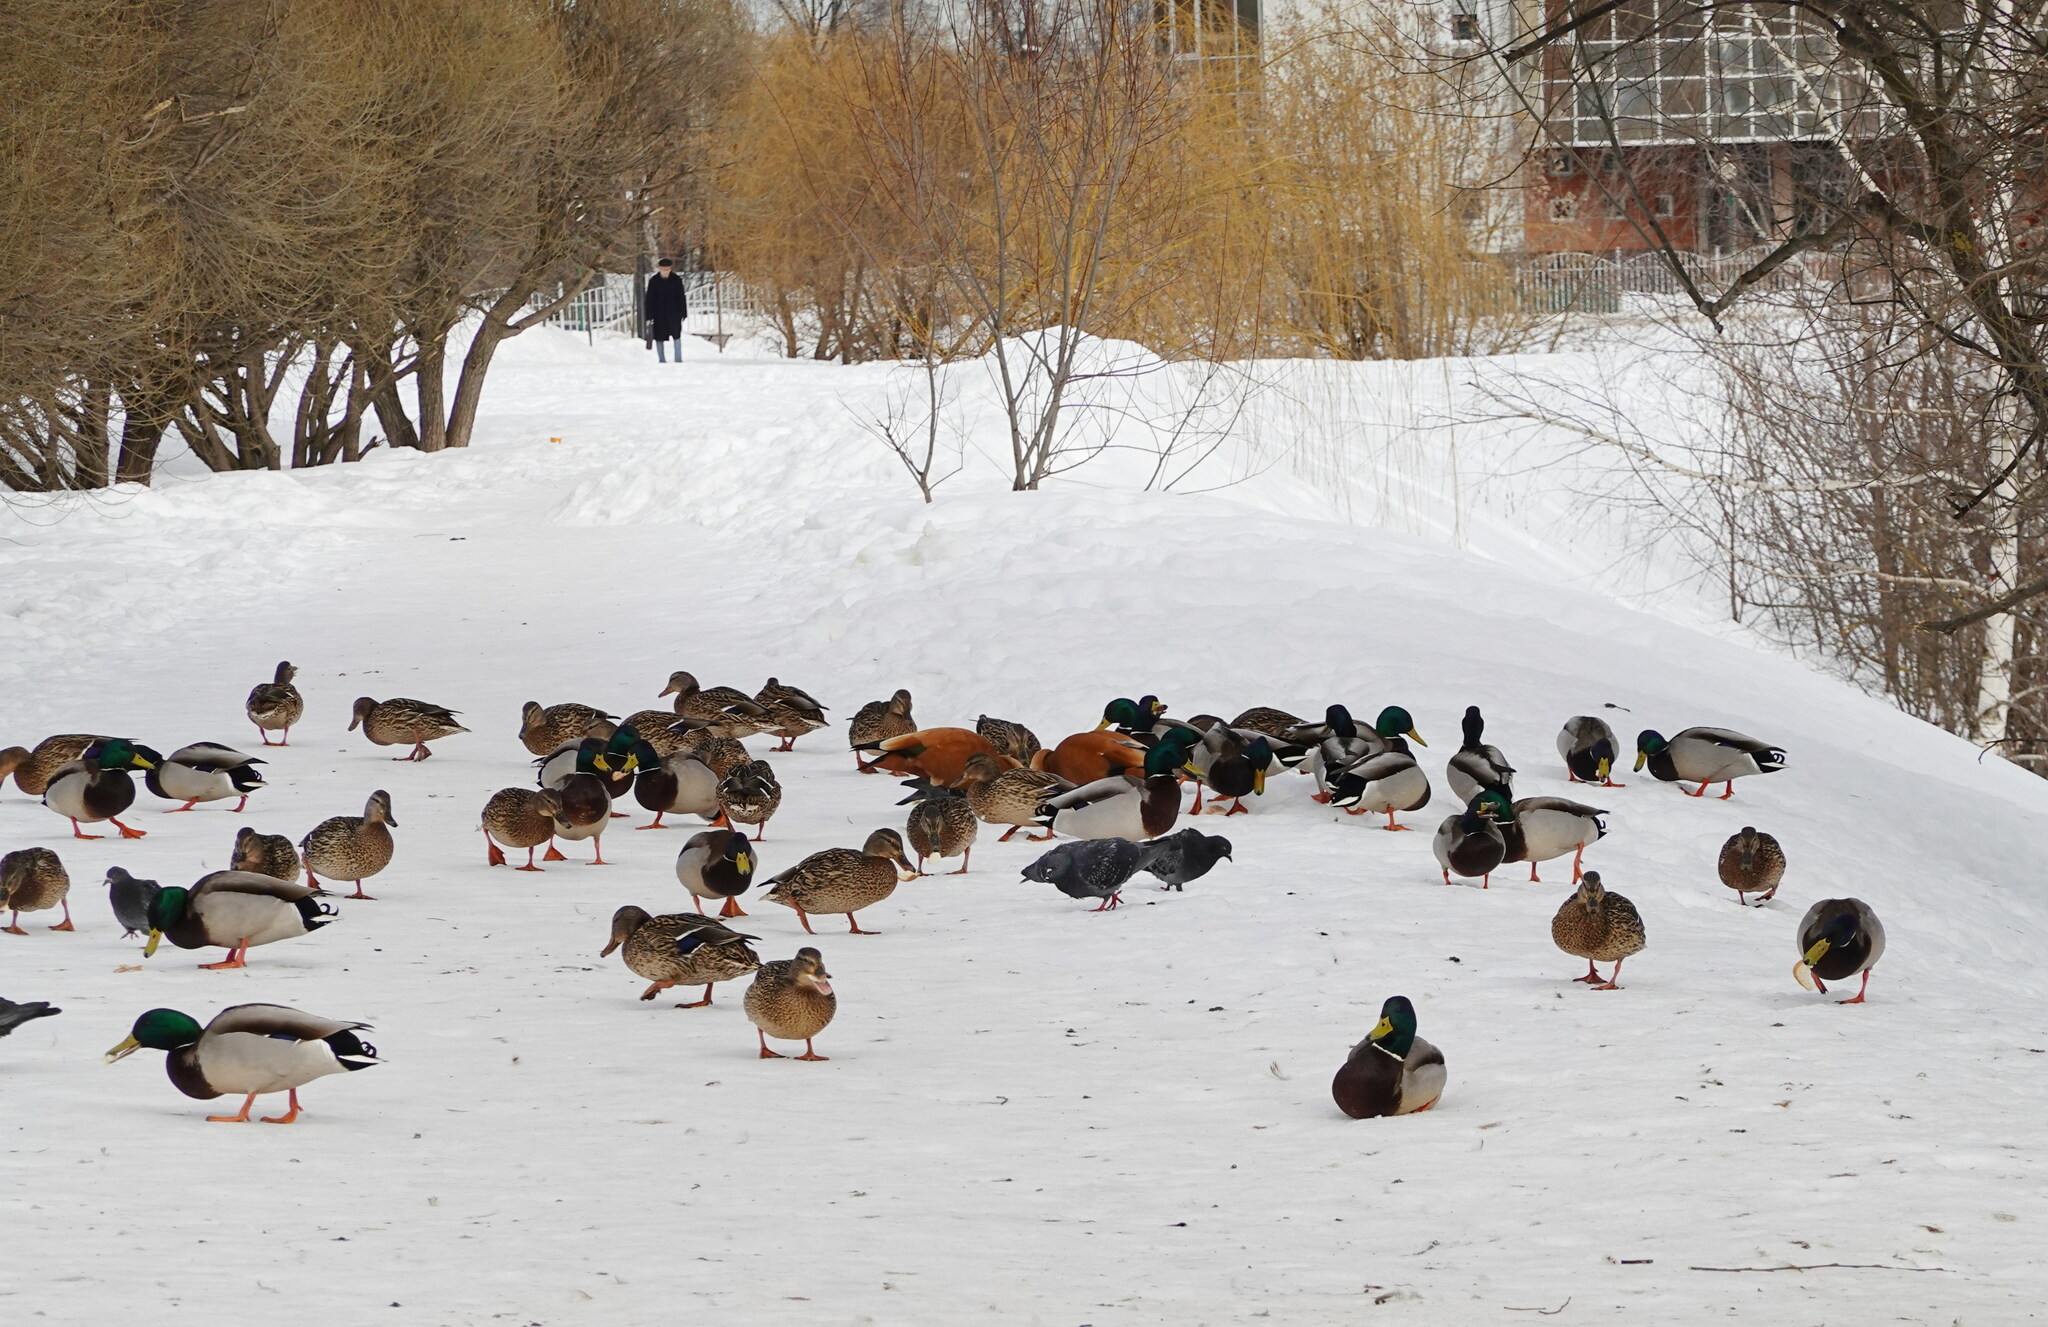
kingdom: Animalia
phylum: Chordata
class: Aves
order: Anseriformes
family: Anatidae
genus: Anas
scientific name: Anas platyrhynchos
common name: Mallard
